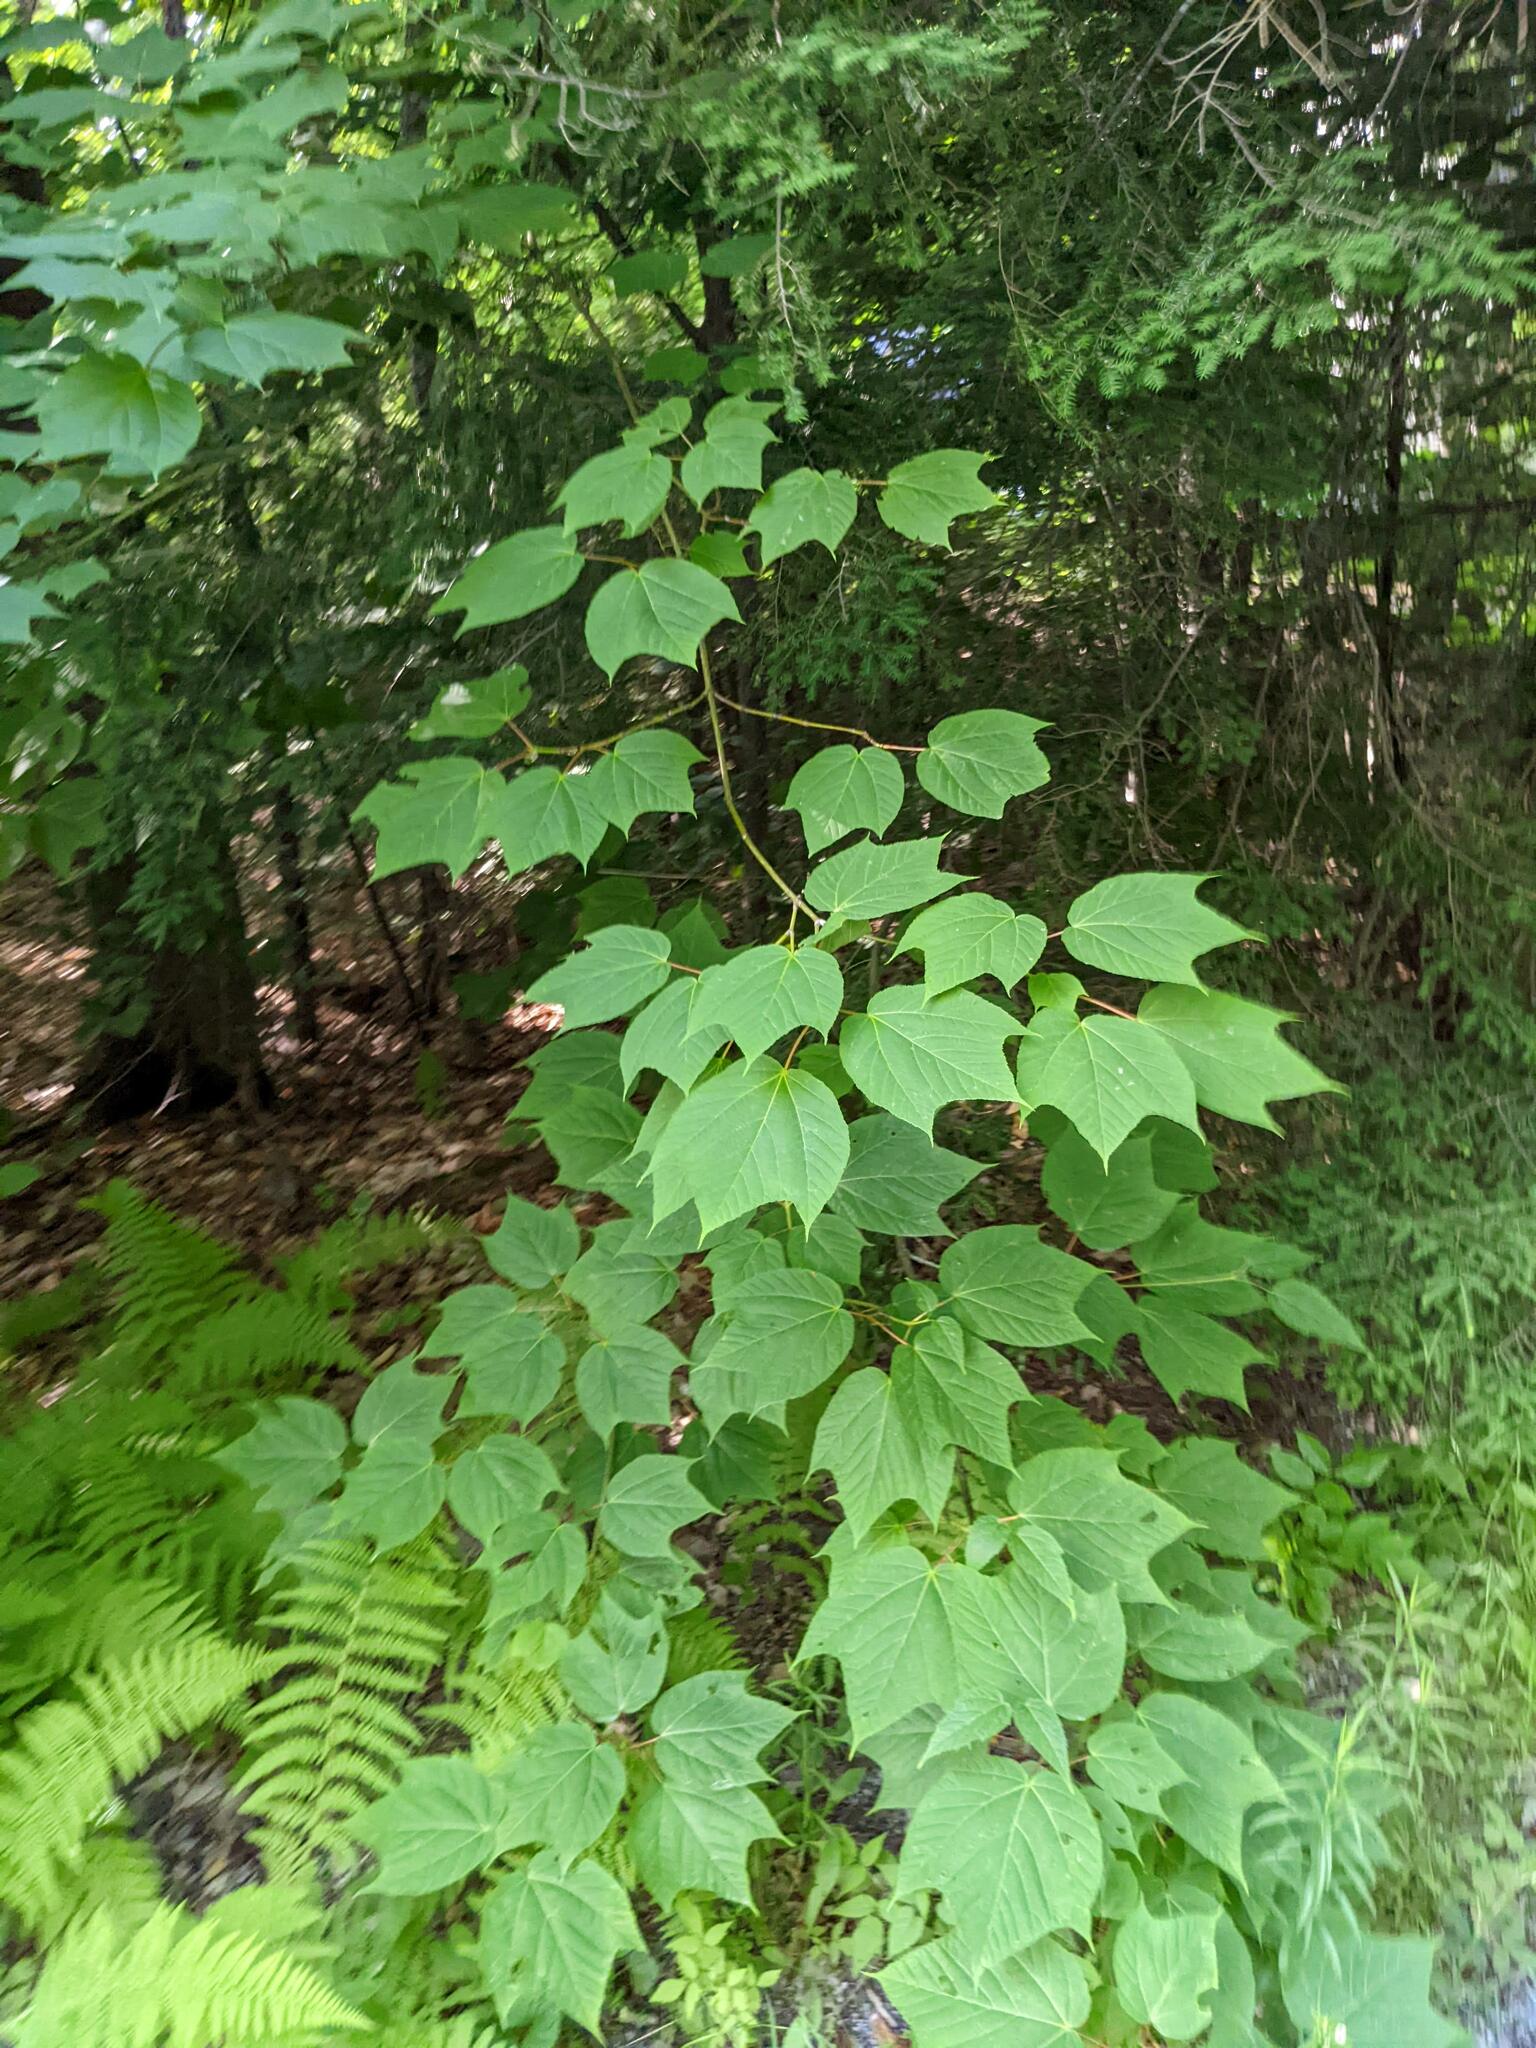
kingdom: Plantae
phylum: Tracheophyta
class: Magnoliopsida
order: Sapindales
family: Sapindaceae
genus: Acer
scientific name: Acer pensylvanicum
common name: Moosewood
